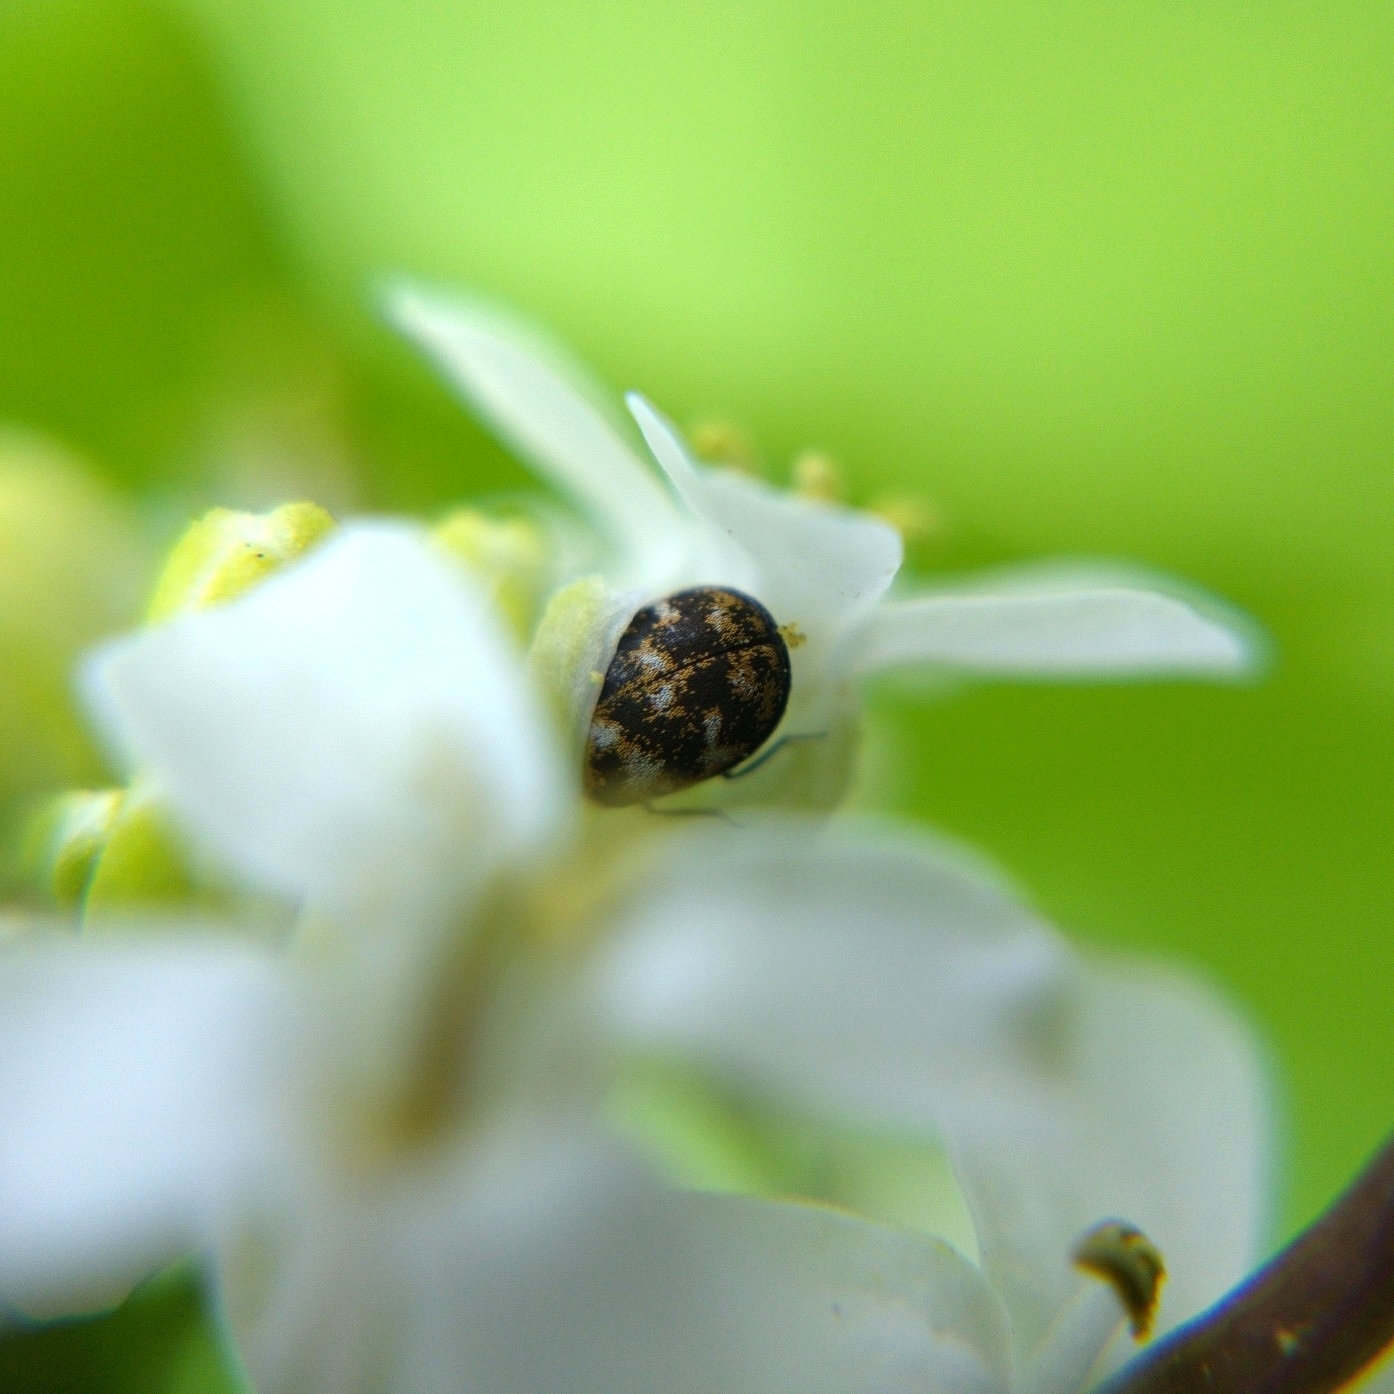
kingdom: Animalia
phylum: Arthropoda
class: Insecta
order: Coleoptera
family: Dermestidae
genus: Anthrenus
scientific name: Anthrenus verbasci
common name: Varied carpet beetle
